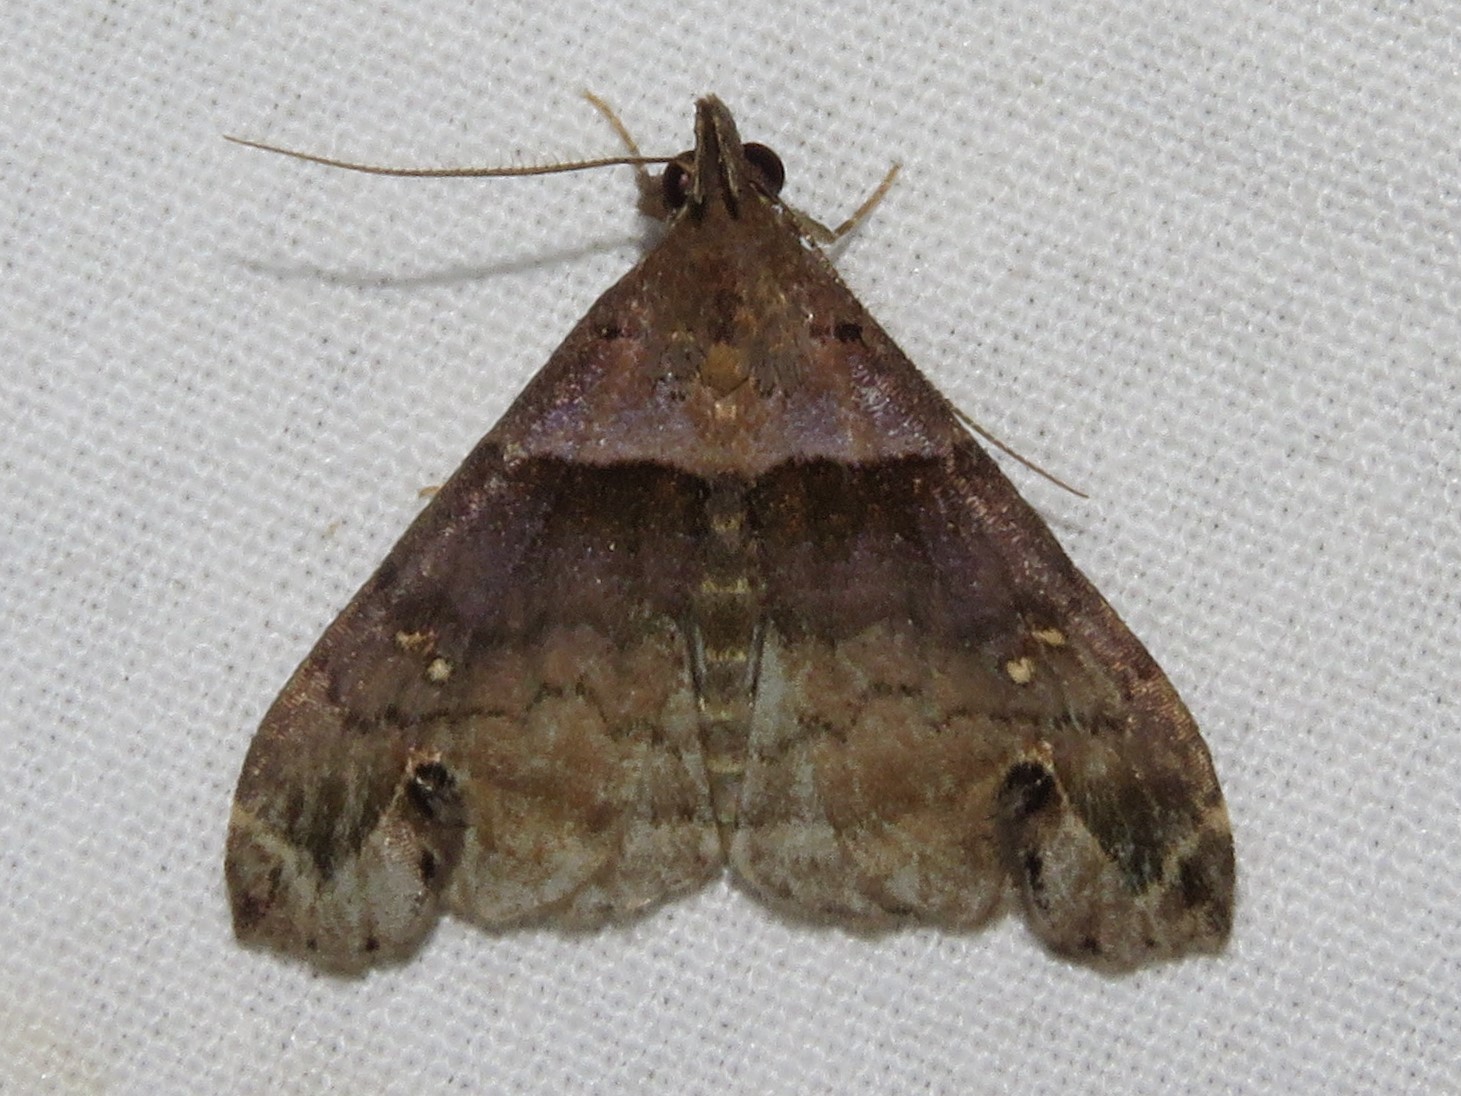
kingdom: Animalia
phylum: Arthropoda
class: Insecta
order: Lepidoptera
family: Erebidae
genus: Lascoria
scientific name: Lascoria ambigualis
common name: Ambiguous moth
